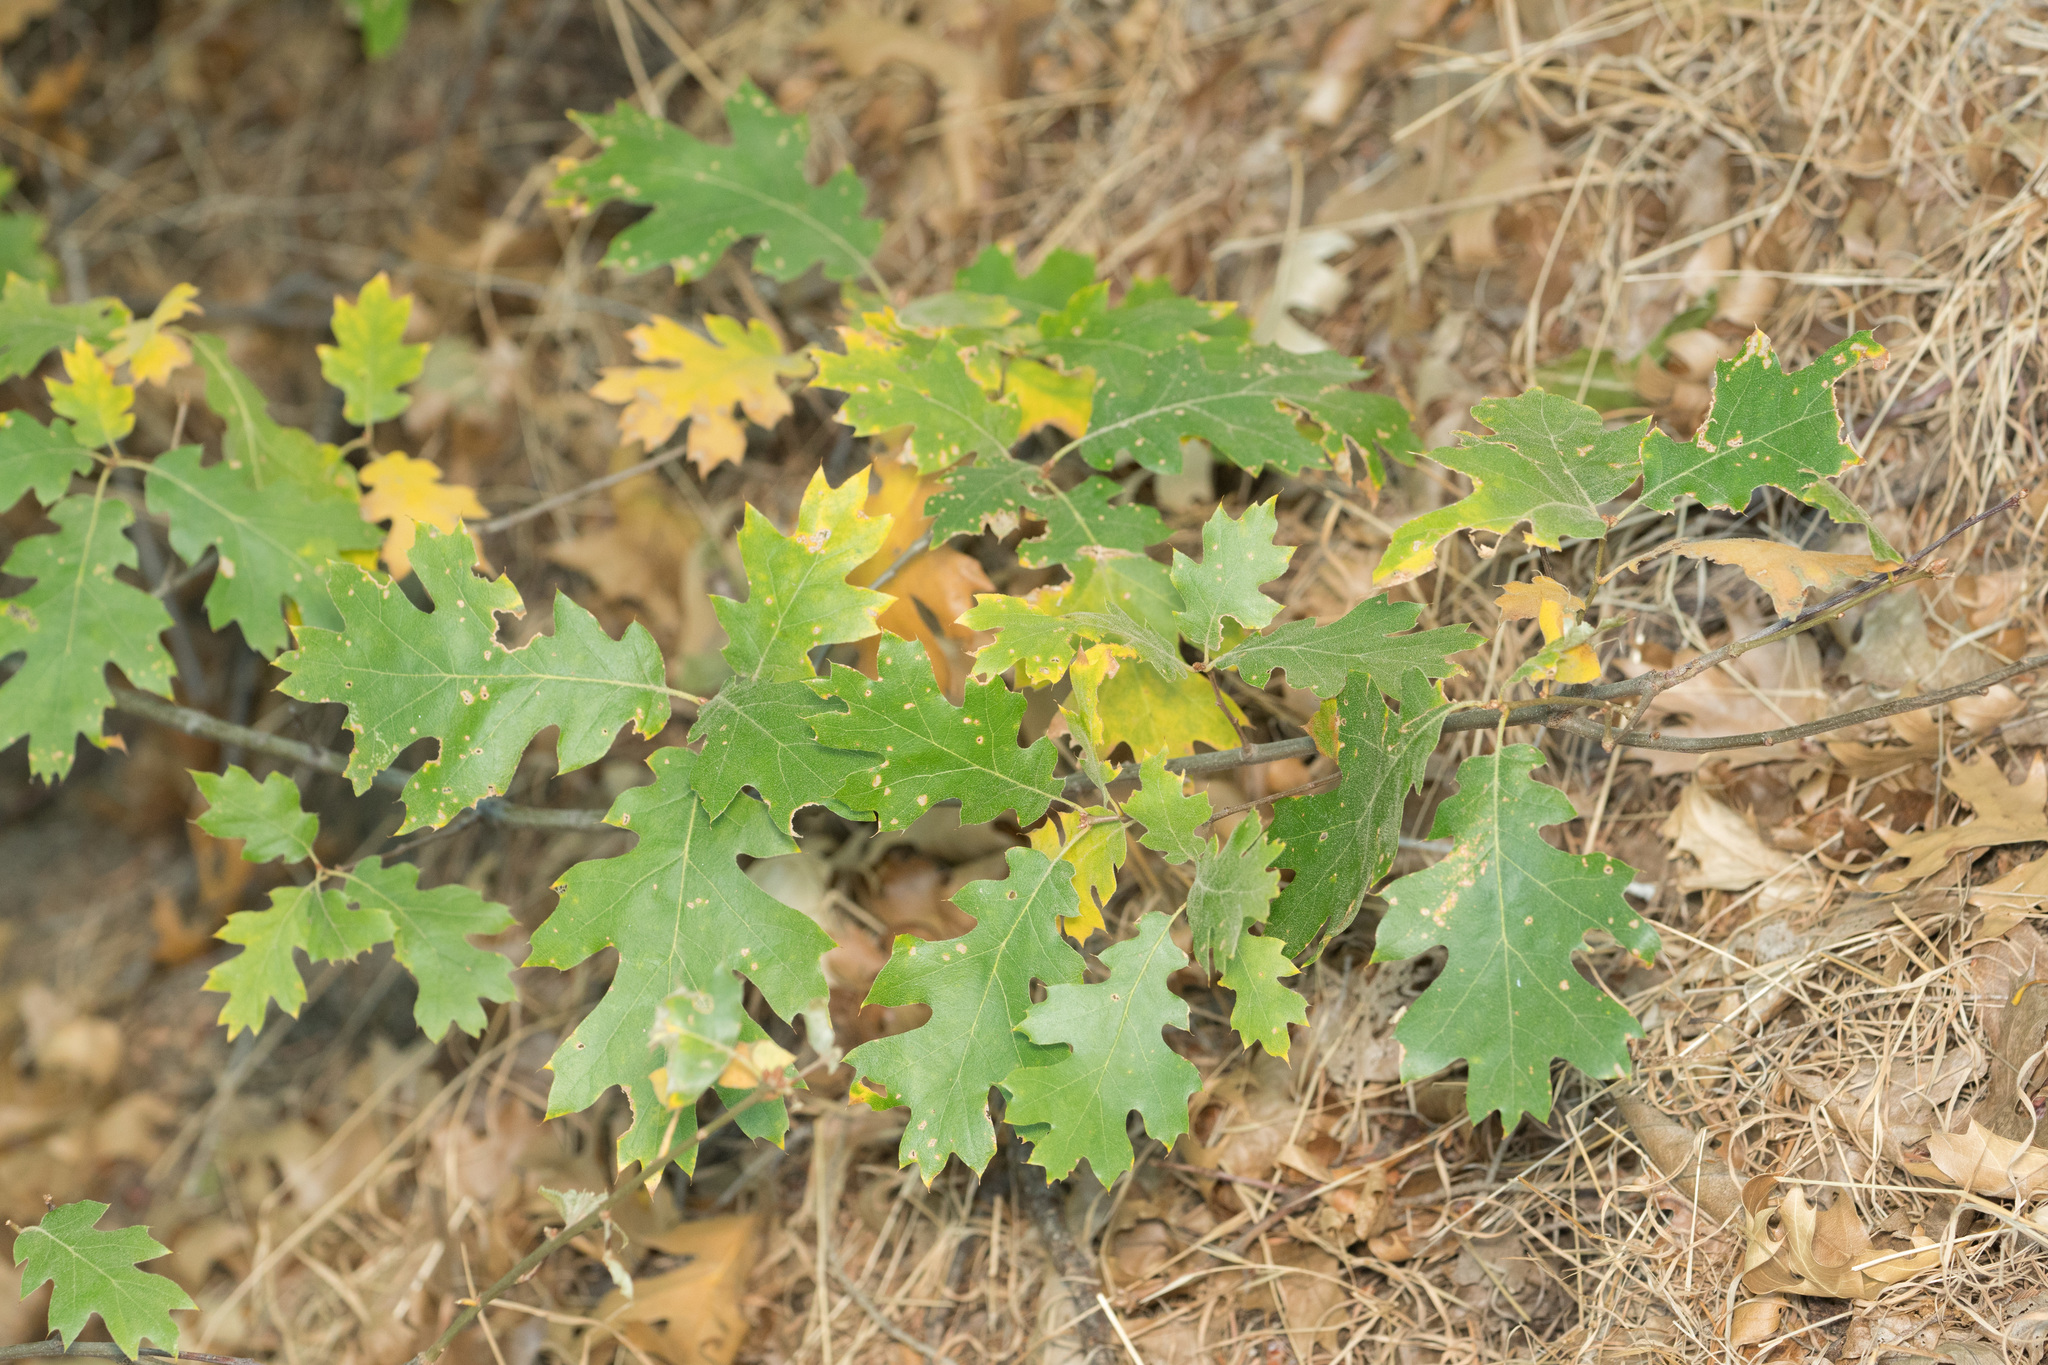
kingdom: Plantae
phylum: Tracheophyta
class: Magnoliopsida
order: Fagales
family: Fagaceae
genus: Quercus
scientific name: Quercus kelloggii
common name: California black oak
